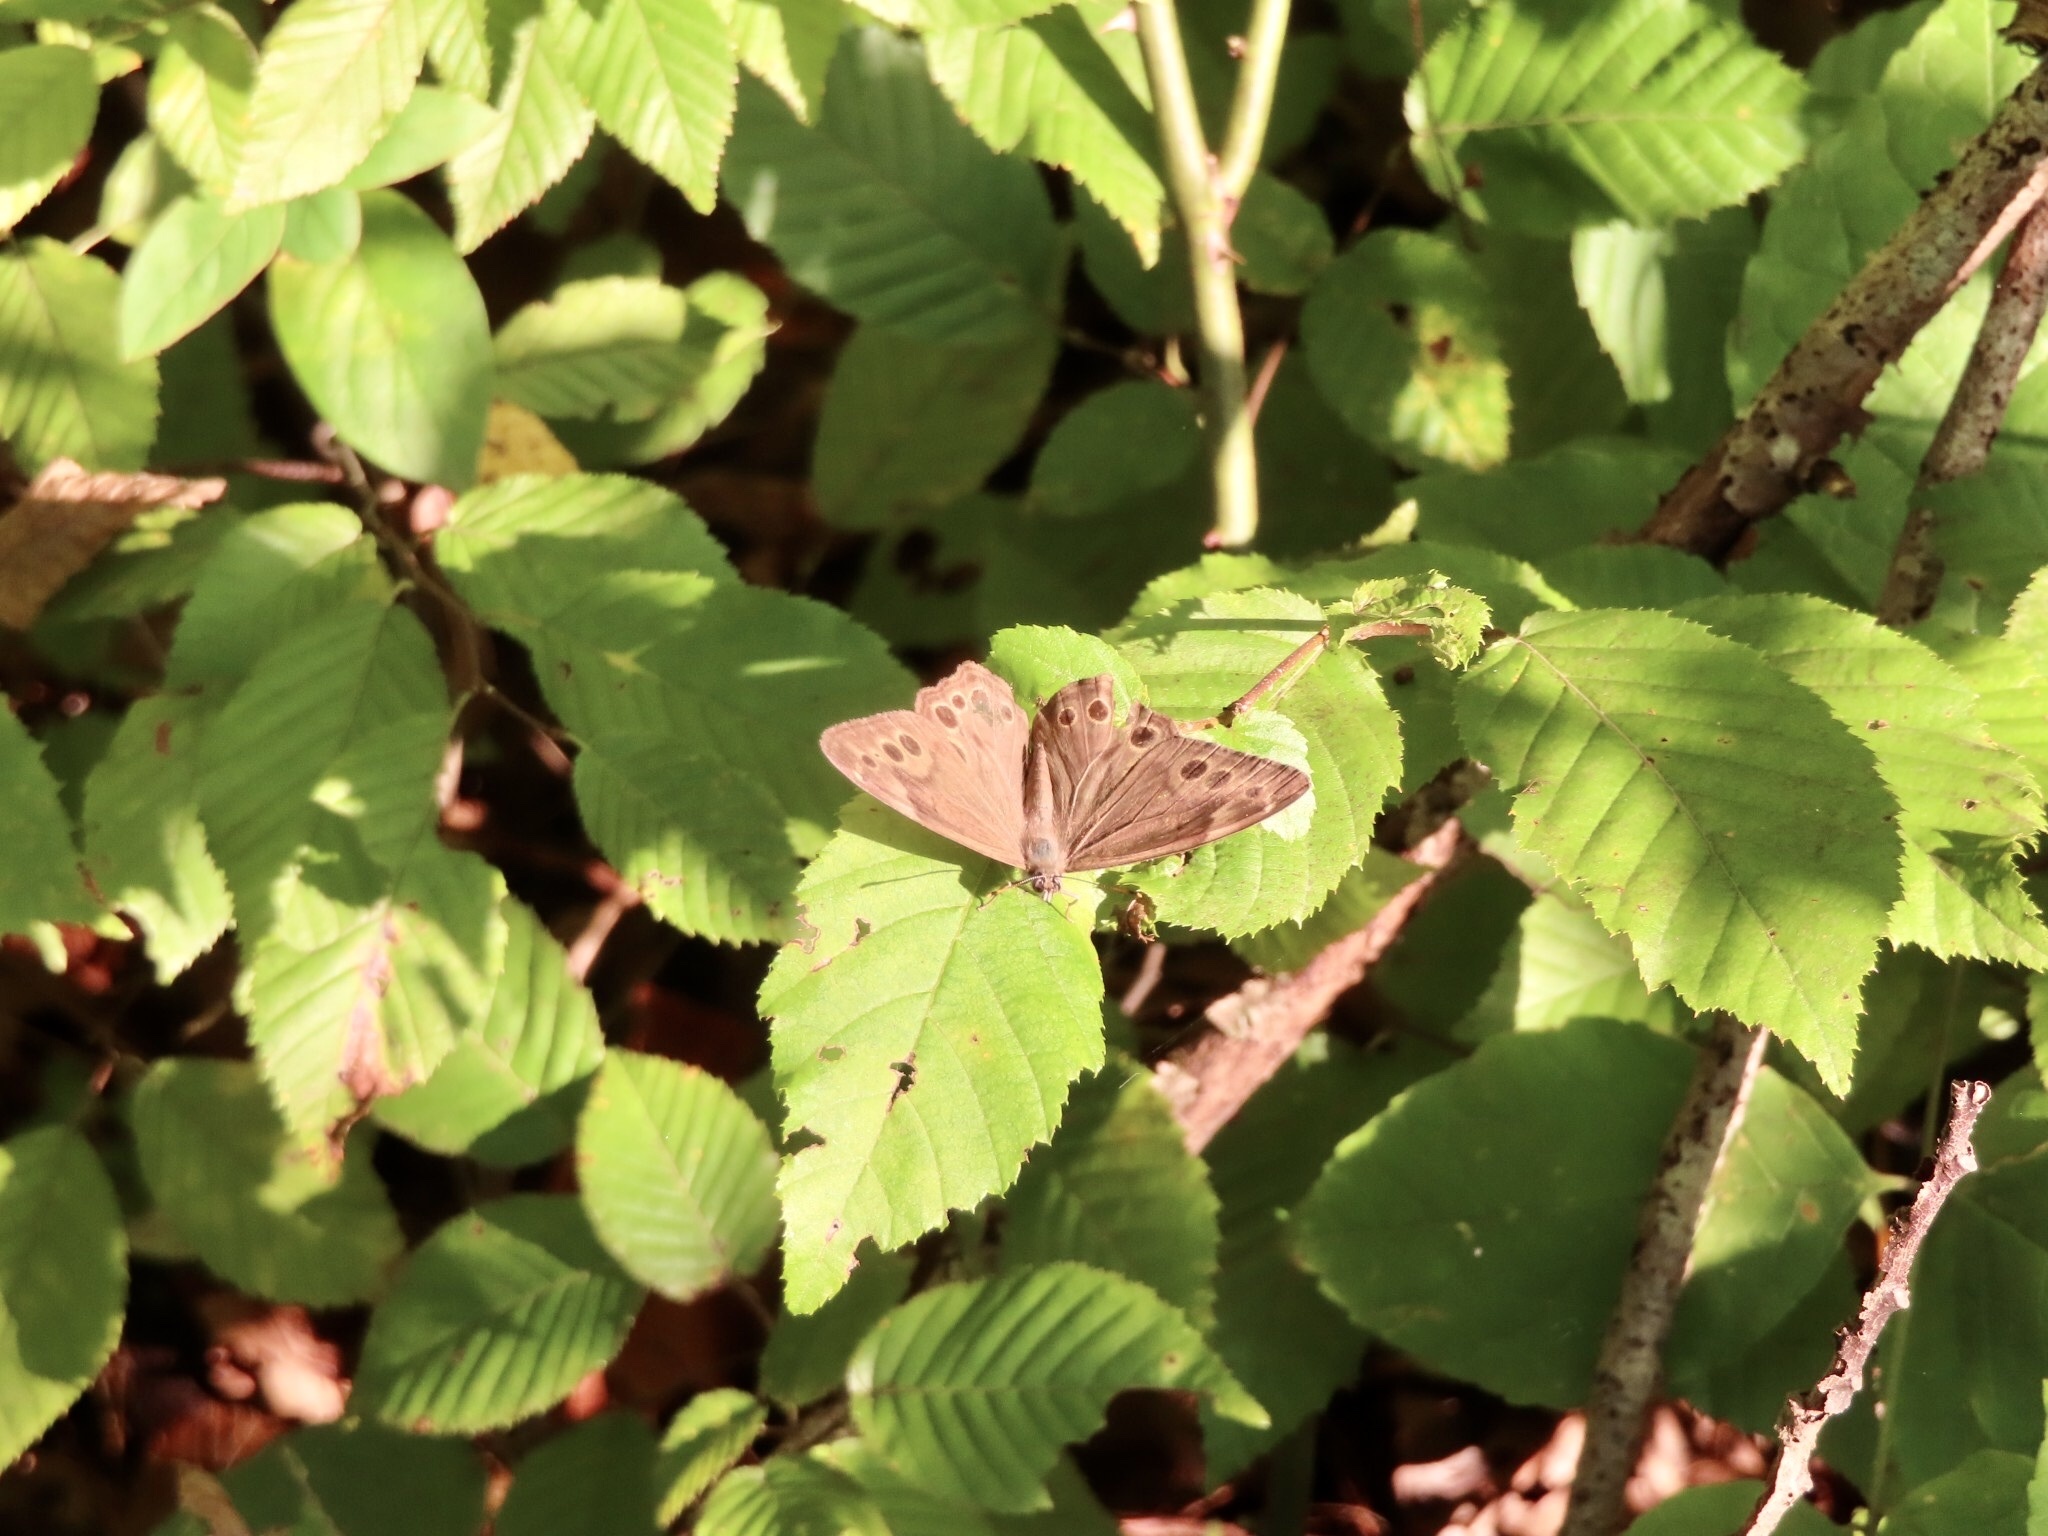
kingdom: Animalia
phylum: Arthropoda
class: Insecta
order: Lepidoptera
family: Nymphalidae
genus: Lethe
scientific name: Lethe anthedon
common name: Northern pearly-eye
